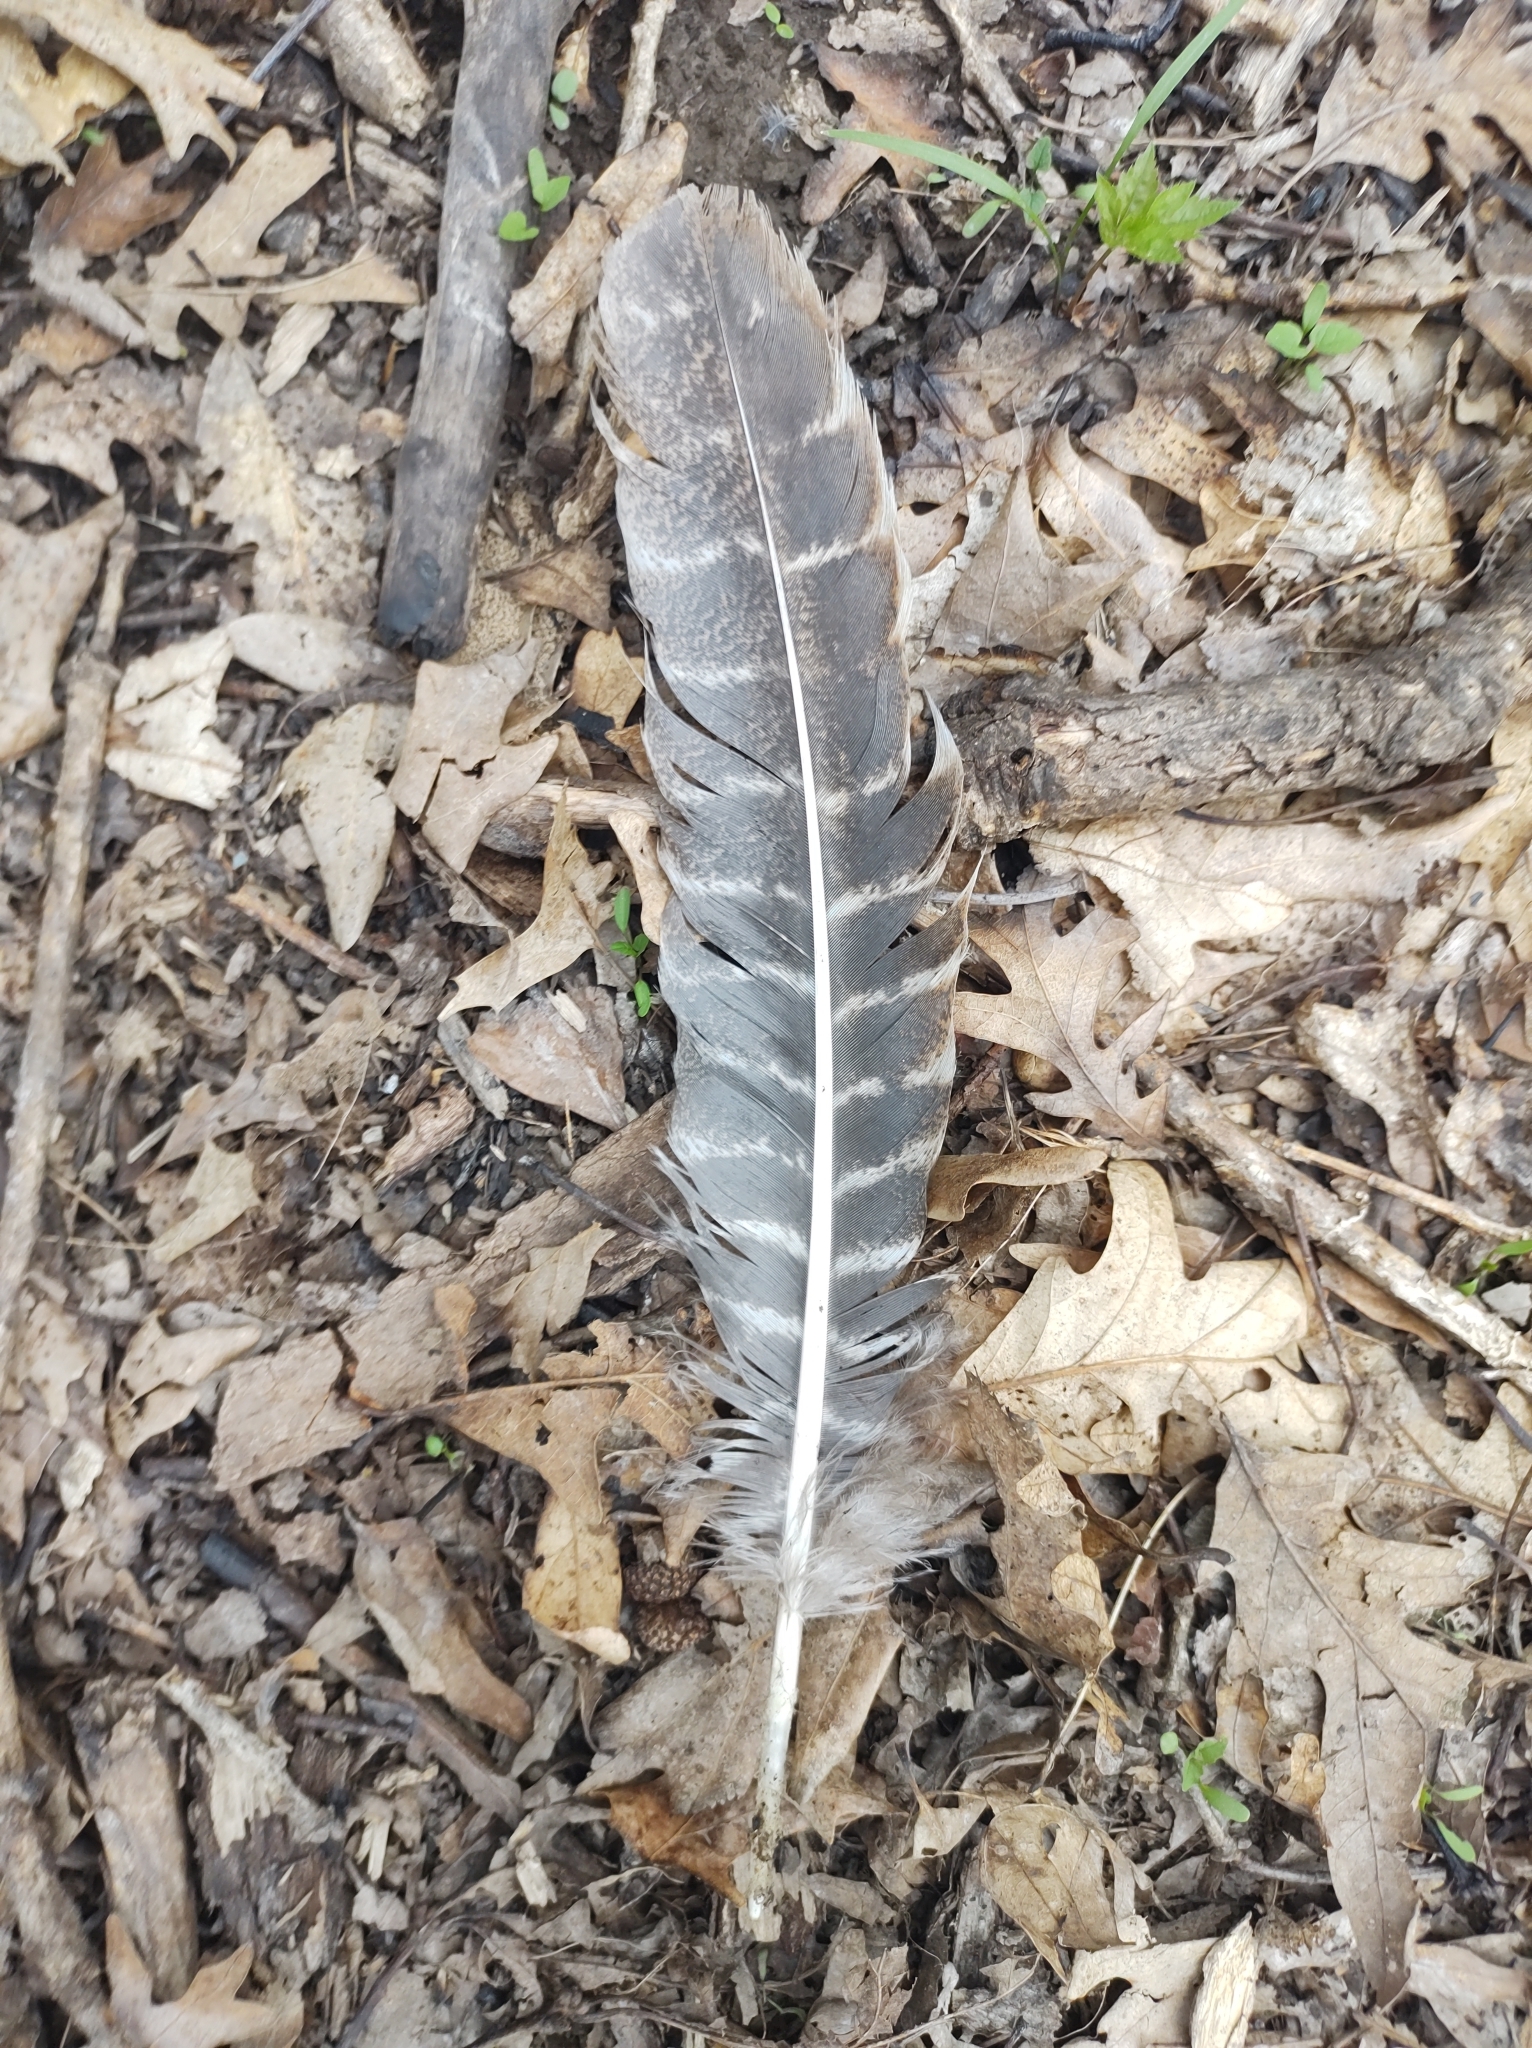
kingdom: Animalia
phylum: Chordata
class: Aves
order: Galliformes
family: Phasianidae
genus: Meleagris
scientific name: Meleagris gallopavo
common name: Wild turkey
